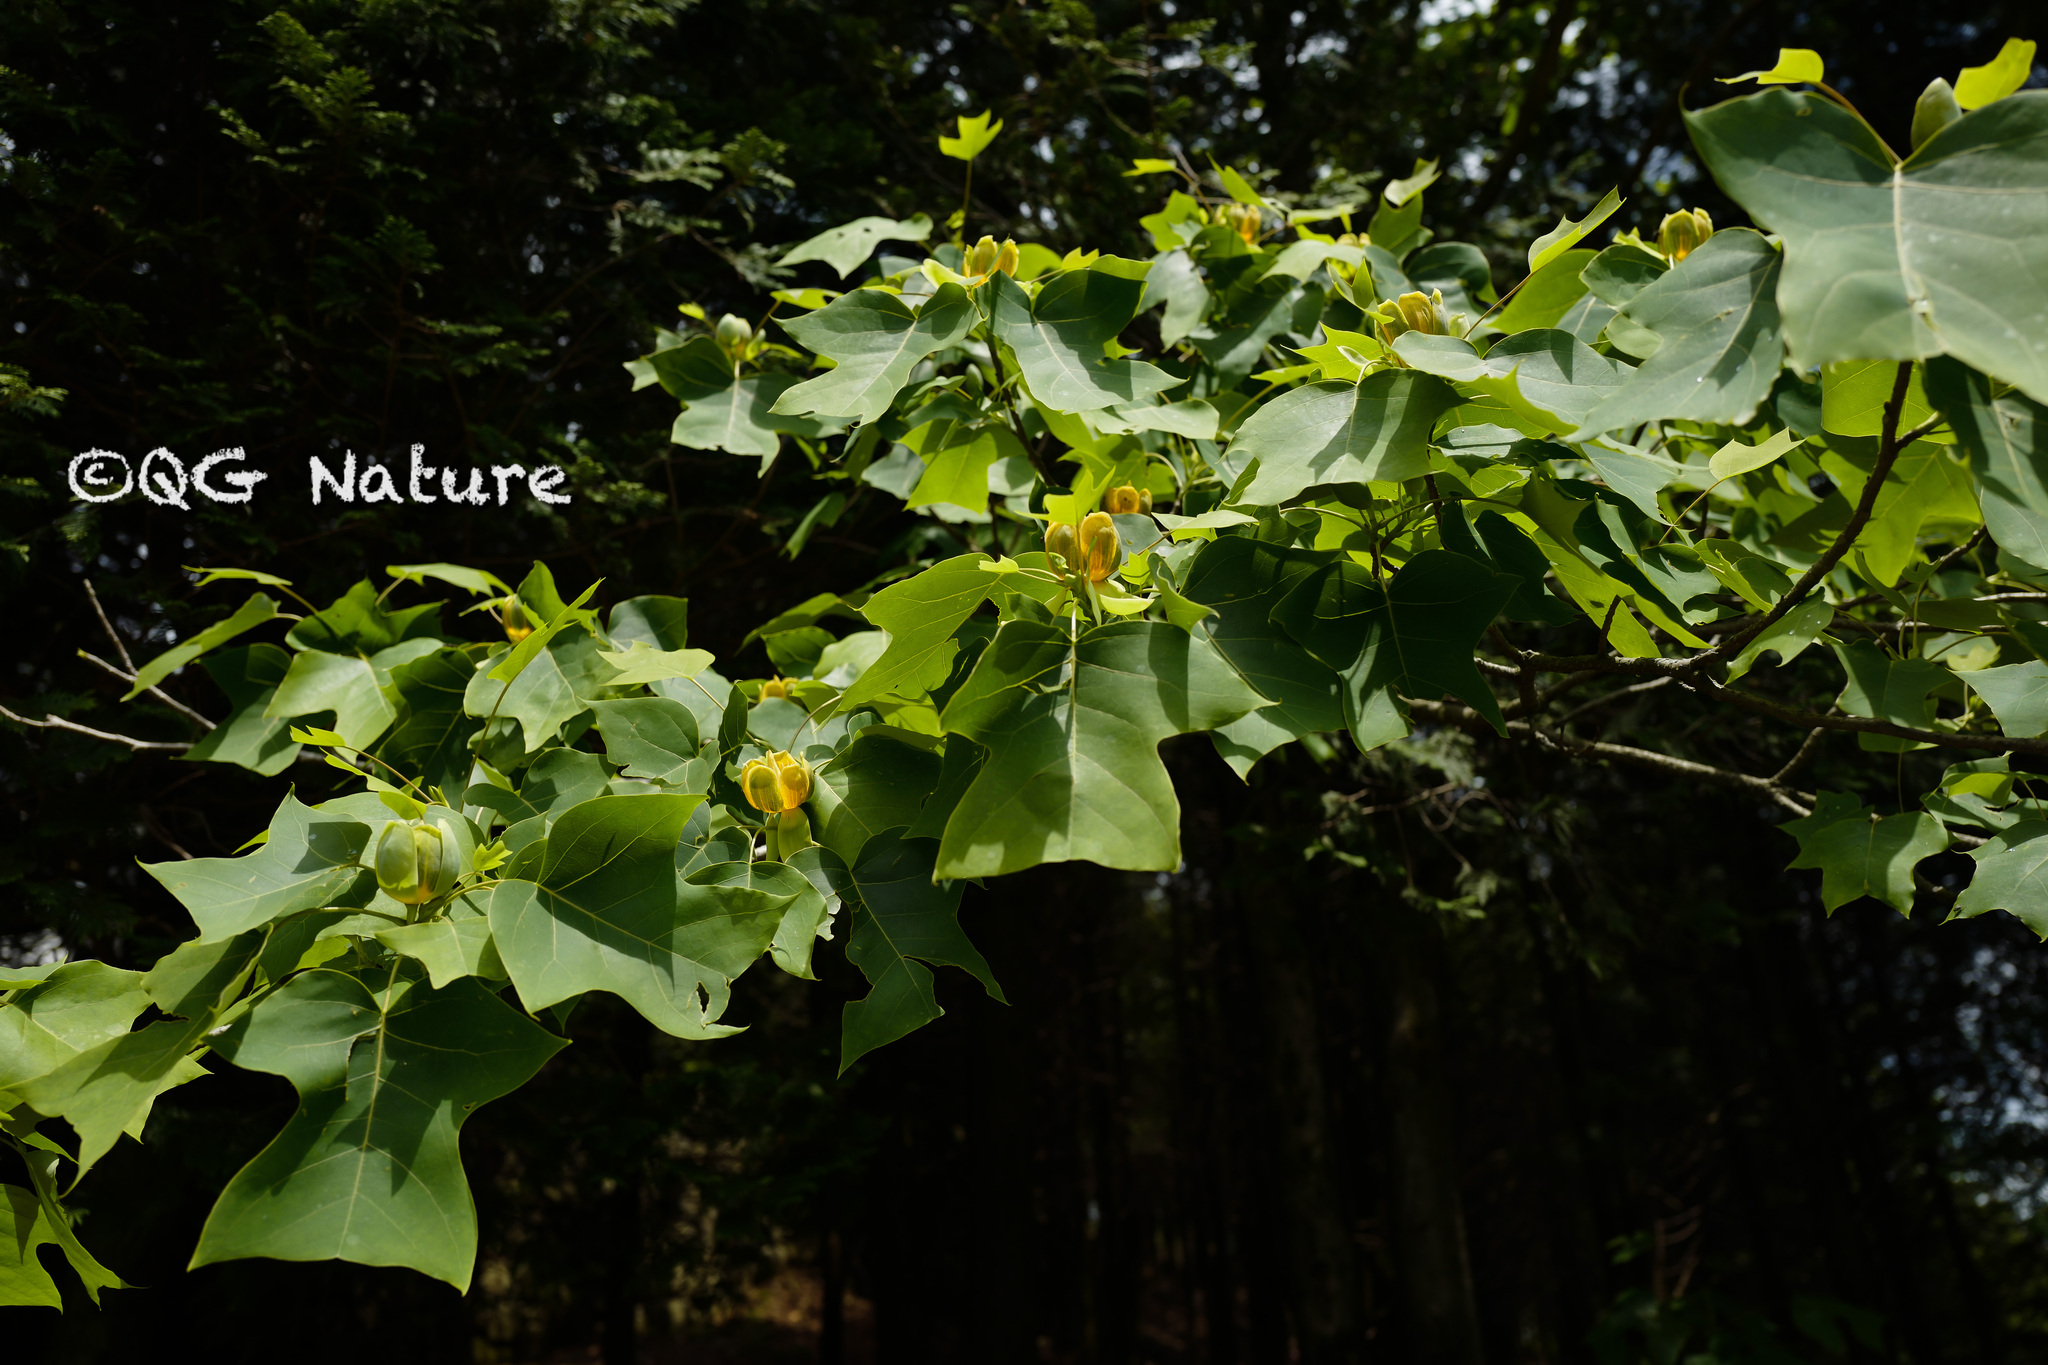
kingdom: Plantae
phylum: Tracheophyta
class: Magnoliopsida
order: Magnoliales
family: Magnoliaceae
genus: Liriodendron
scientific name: Liriodendron chinense
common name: Chinese tuliptree
